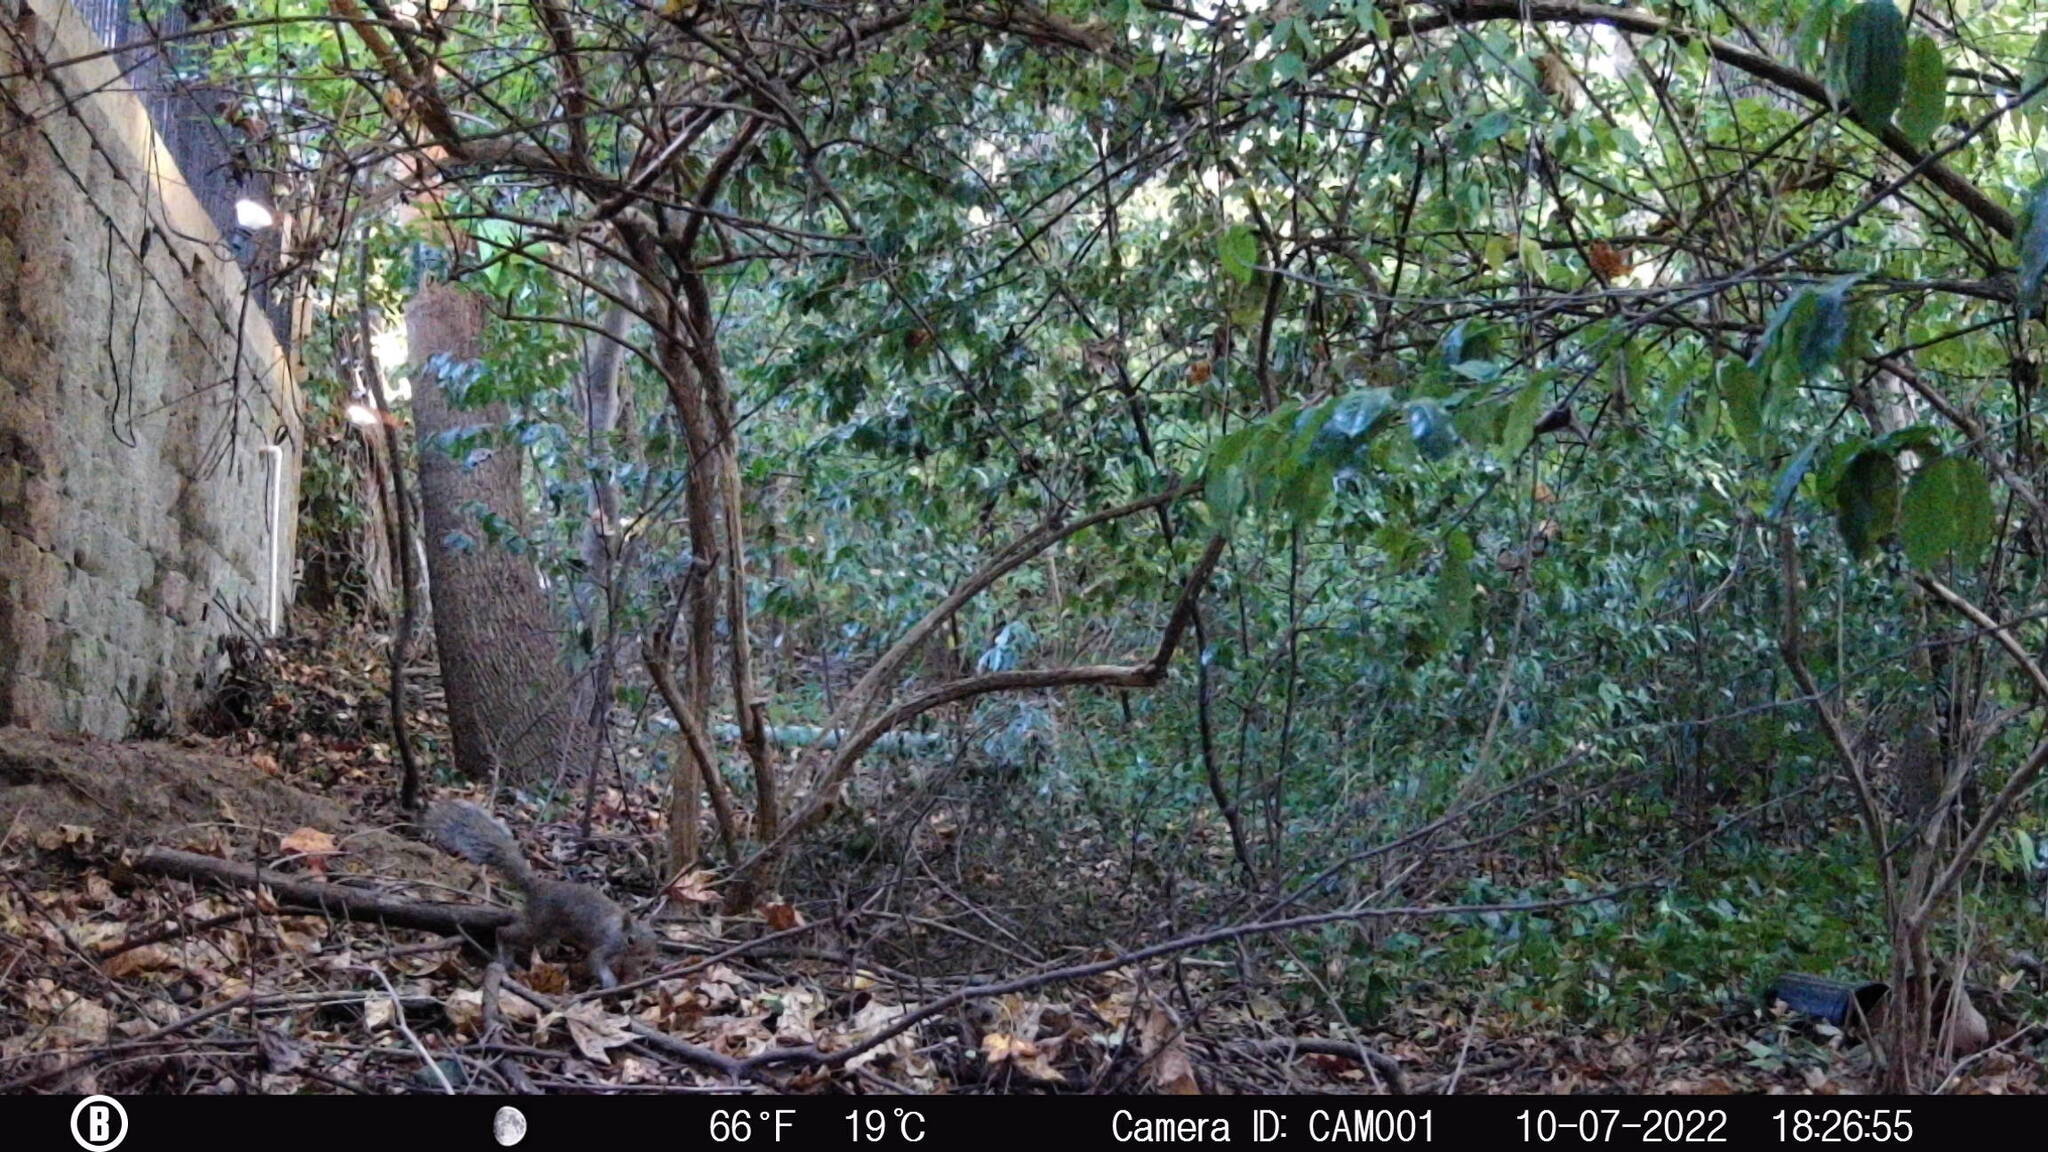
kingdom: Animalia
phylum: Chordata
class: Mammalia
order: Rodentia
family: Sciuridae
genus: Sciurus
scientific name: Sciurus carolinensis
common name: Eastern gray squirrel
